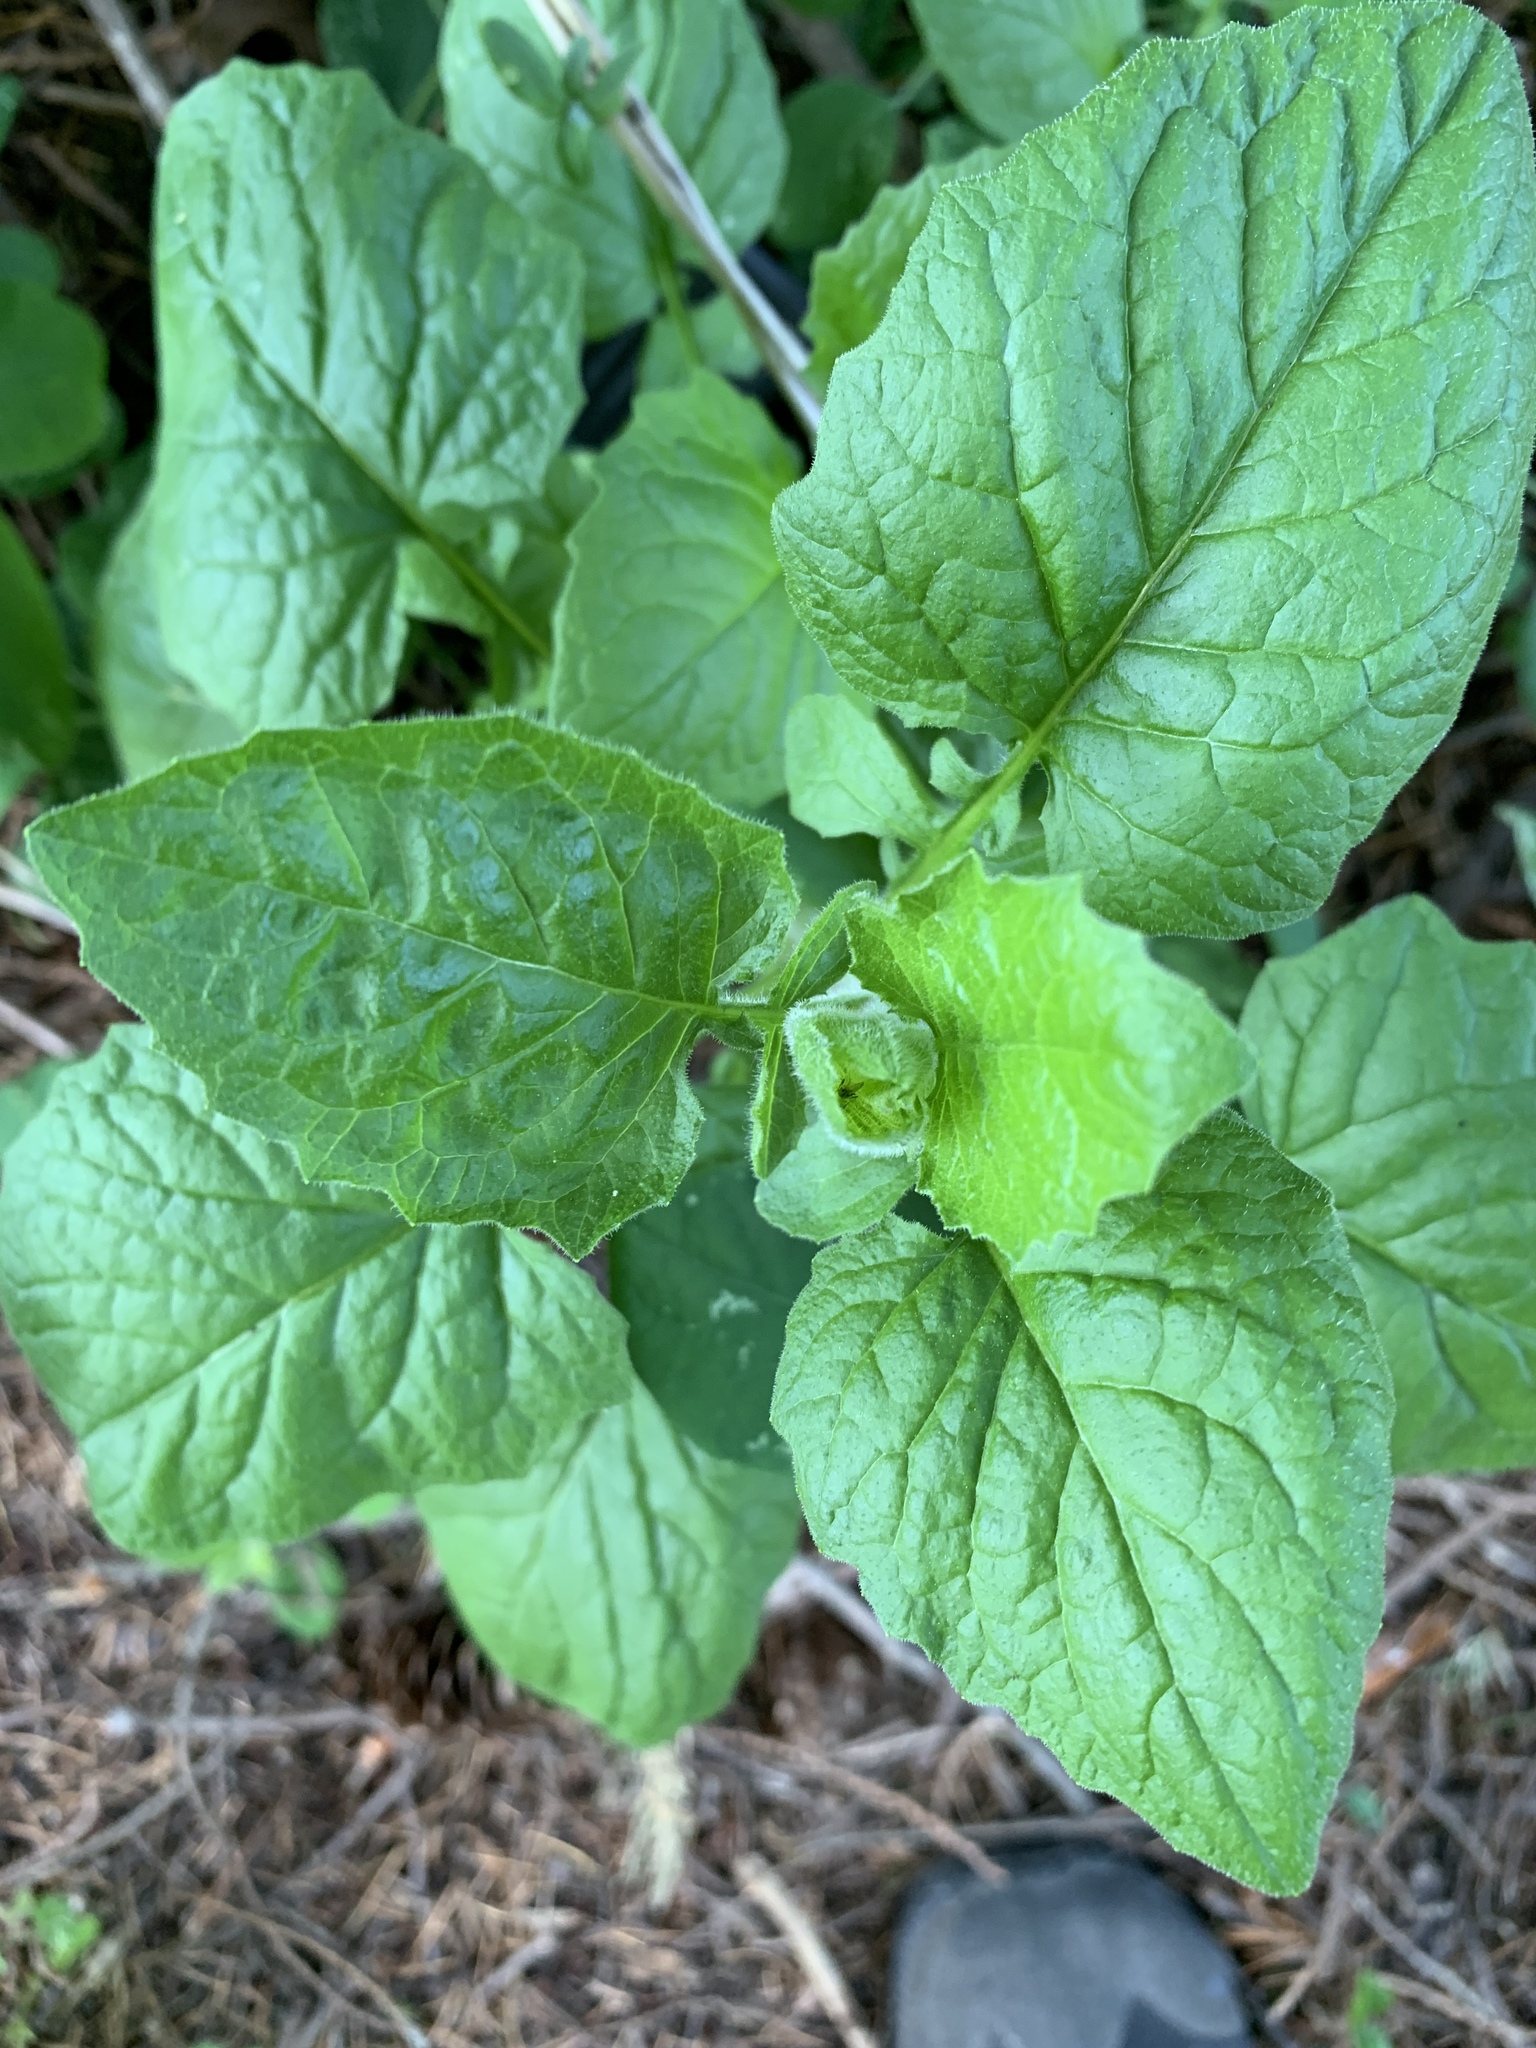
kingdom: Plantae
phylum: Tracheophyta
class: Magnoliopsida
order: Asterales
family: Asteraceae
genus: Lapsana
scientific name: Lapsana communis
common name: Nipplewort
